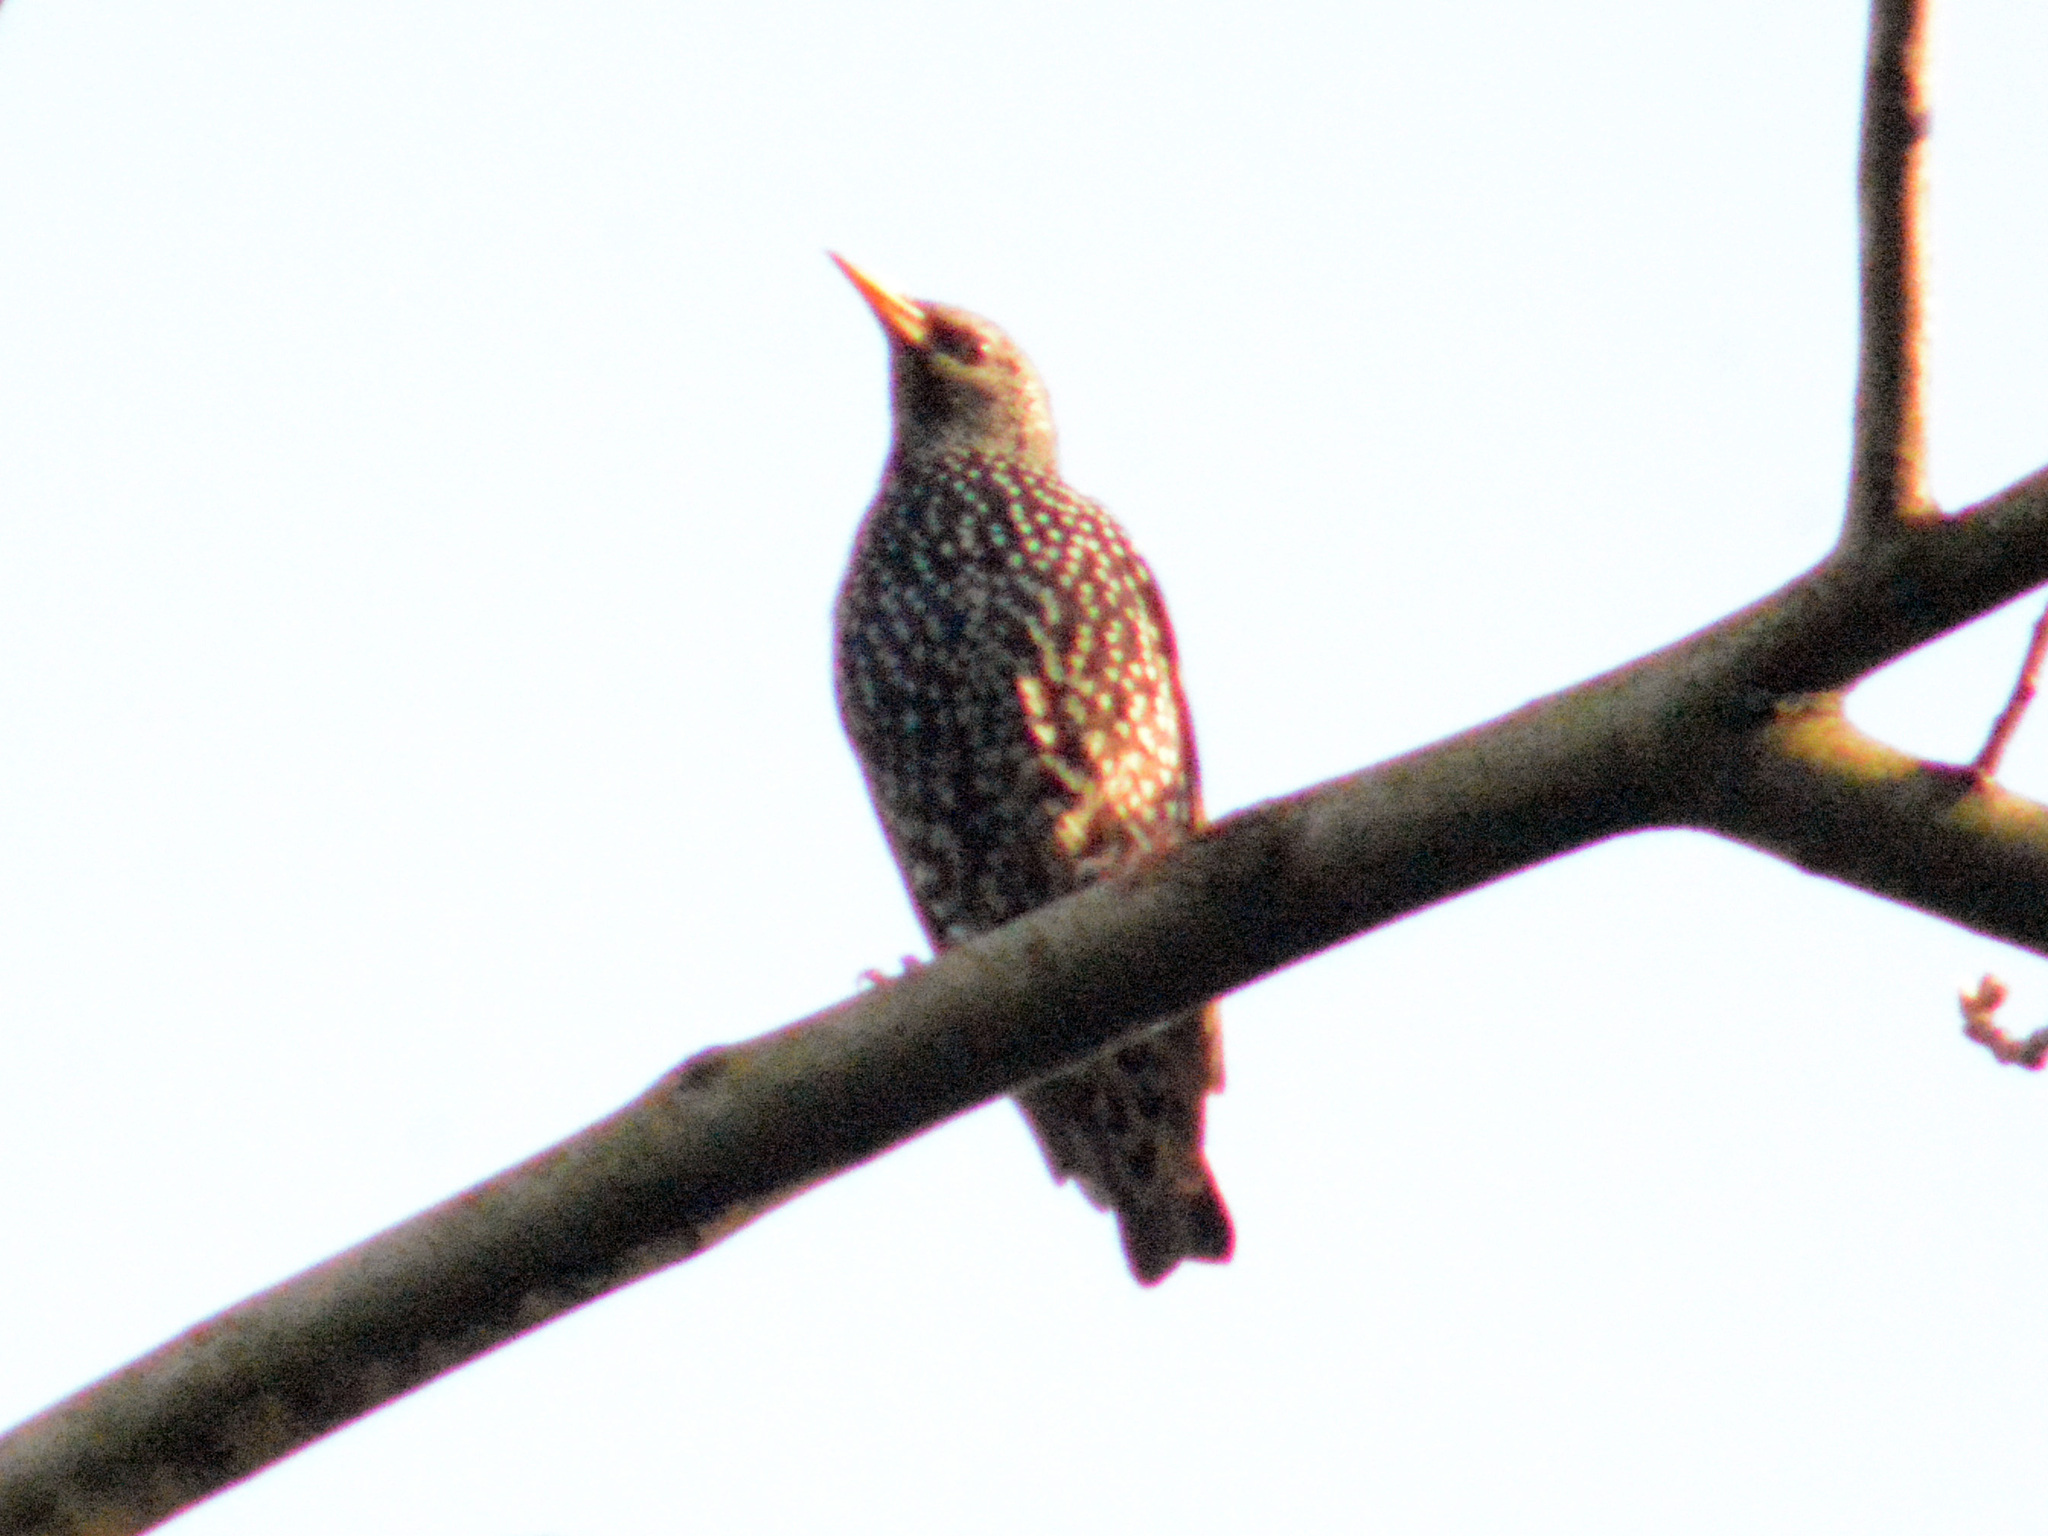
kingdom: Animalia
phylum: Chordata
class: Aves
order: Passeriformes
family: Sturnidae
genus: Sturnus
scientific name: Sturnus vulgaris
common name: Common starling
